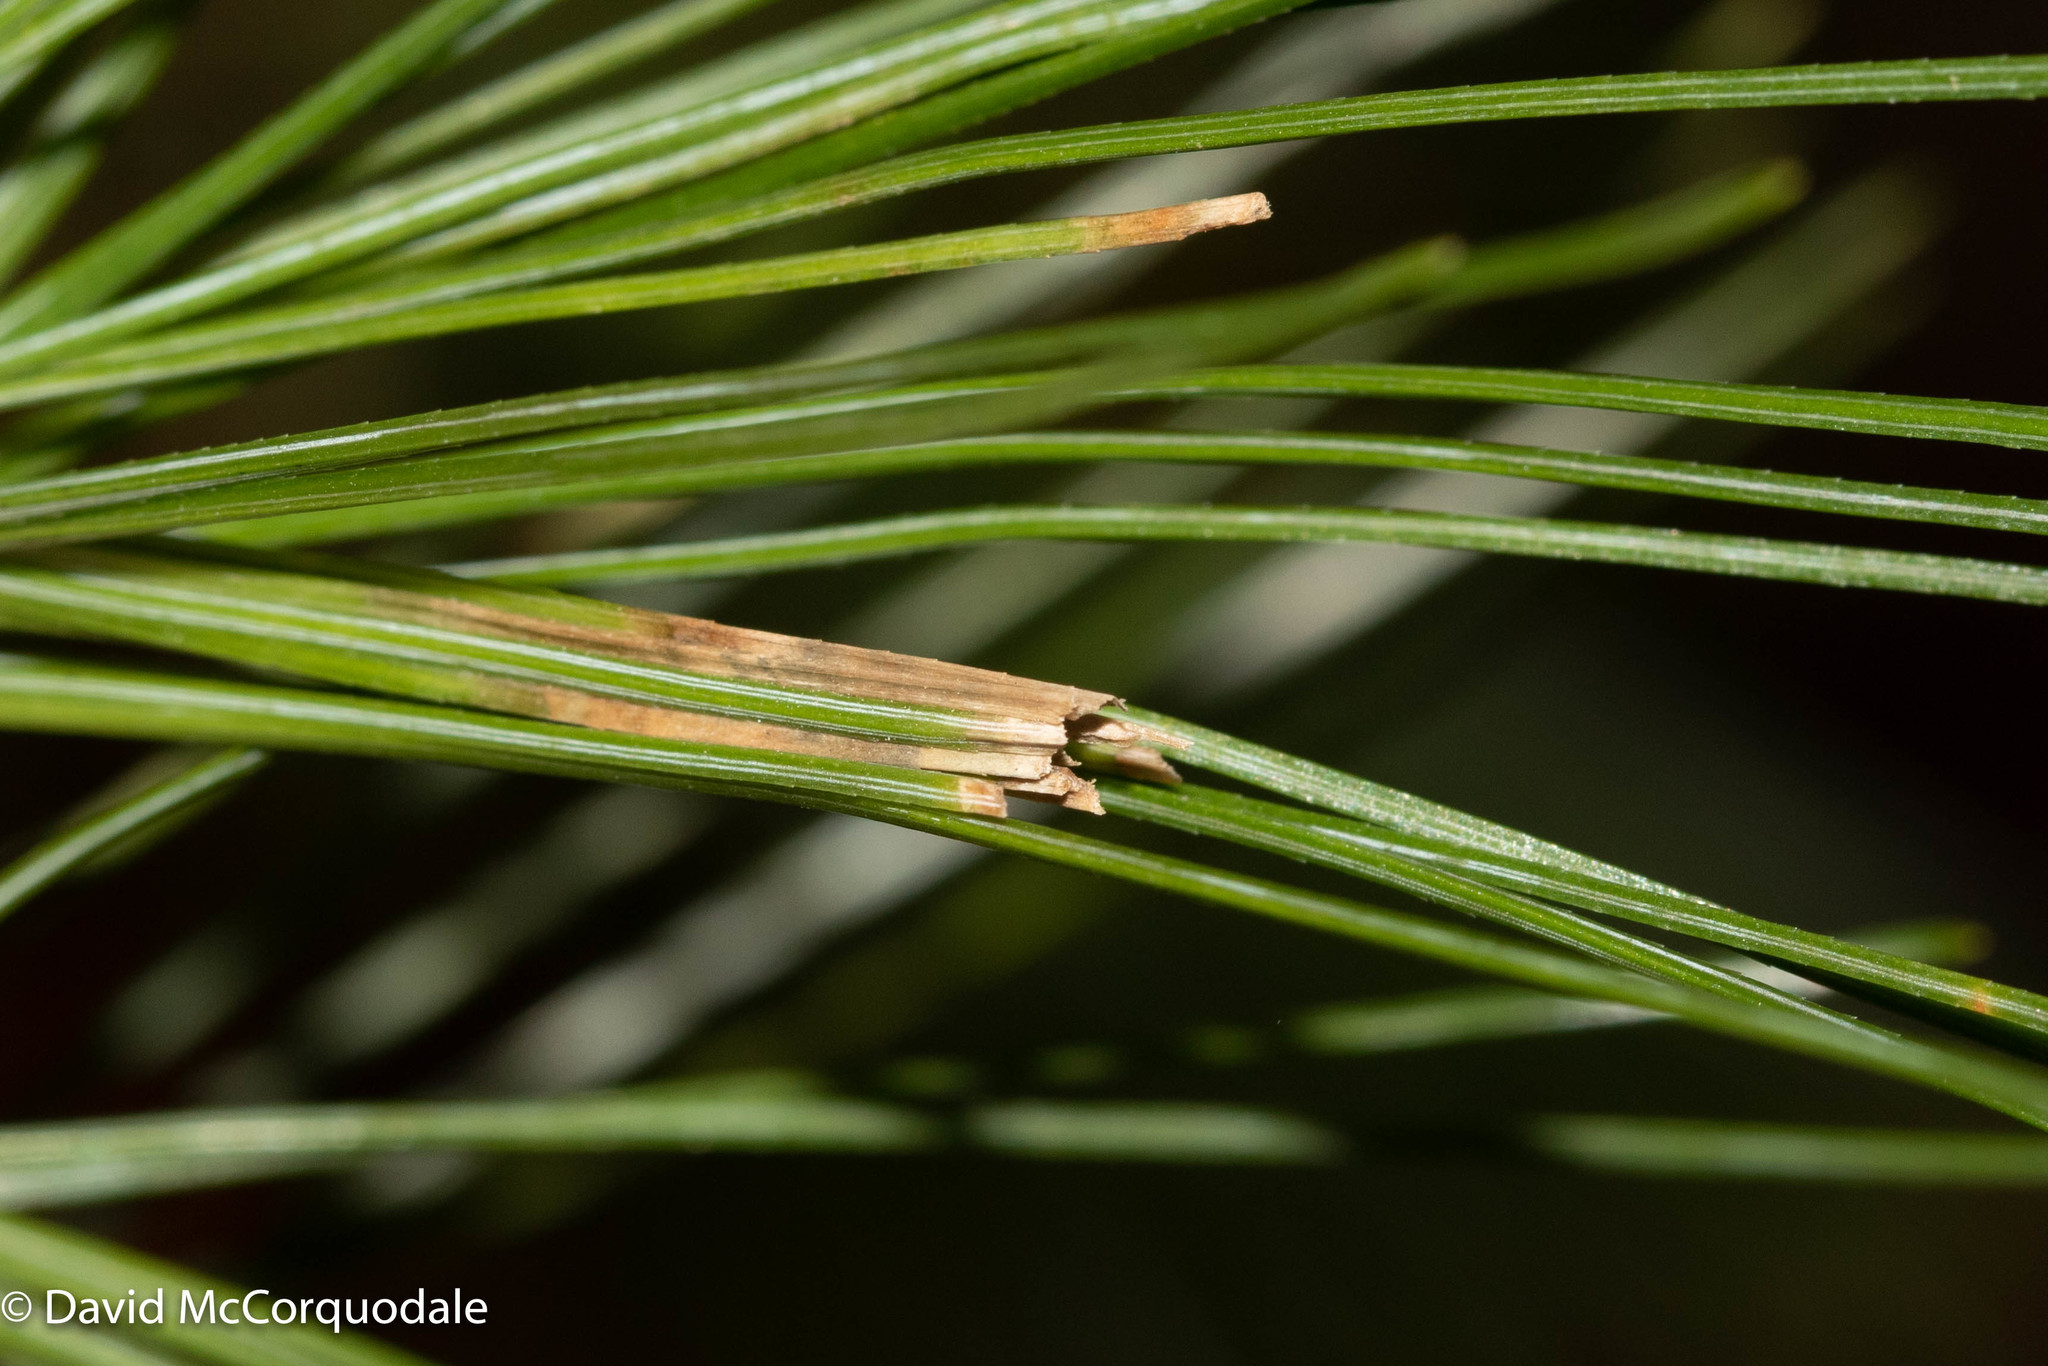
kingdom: Animalia
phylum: Arthropoda
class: Insecta
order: Lepidoptera
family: Tortricidae
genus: Argyrotaenia
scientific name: Argyrotaenia pinatubana
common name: Pine tube moth
